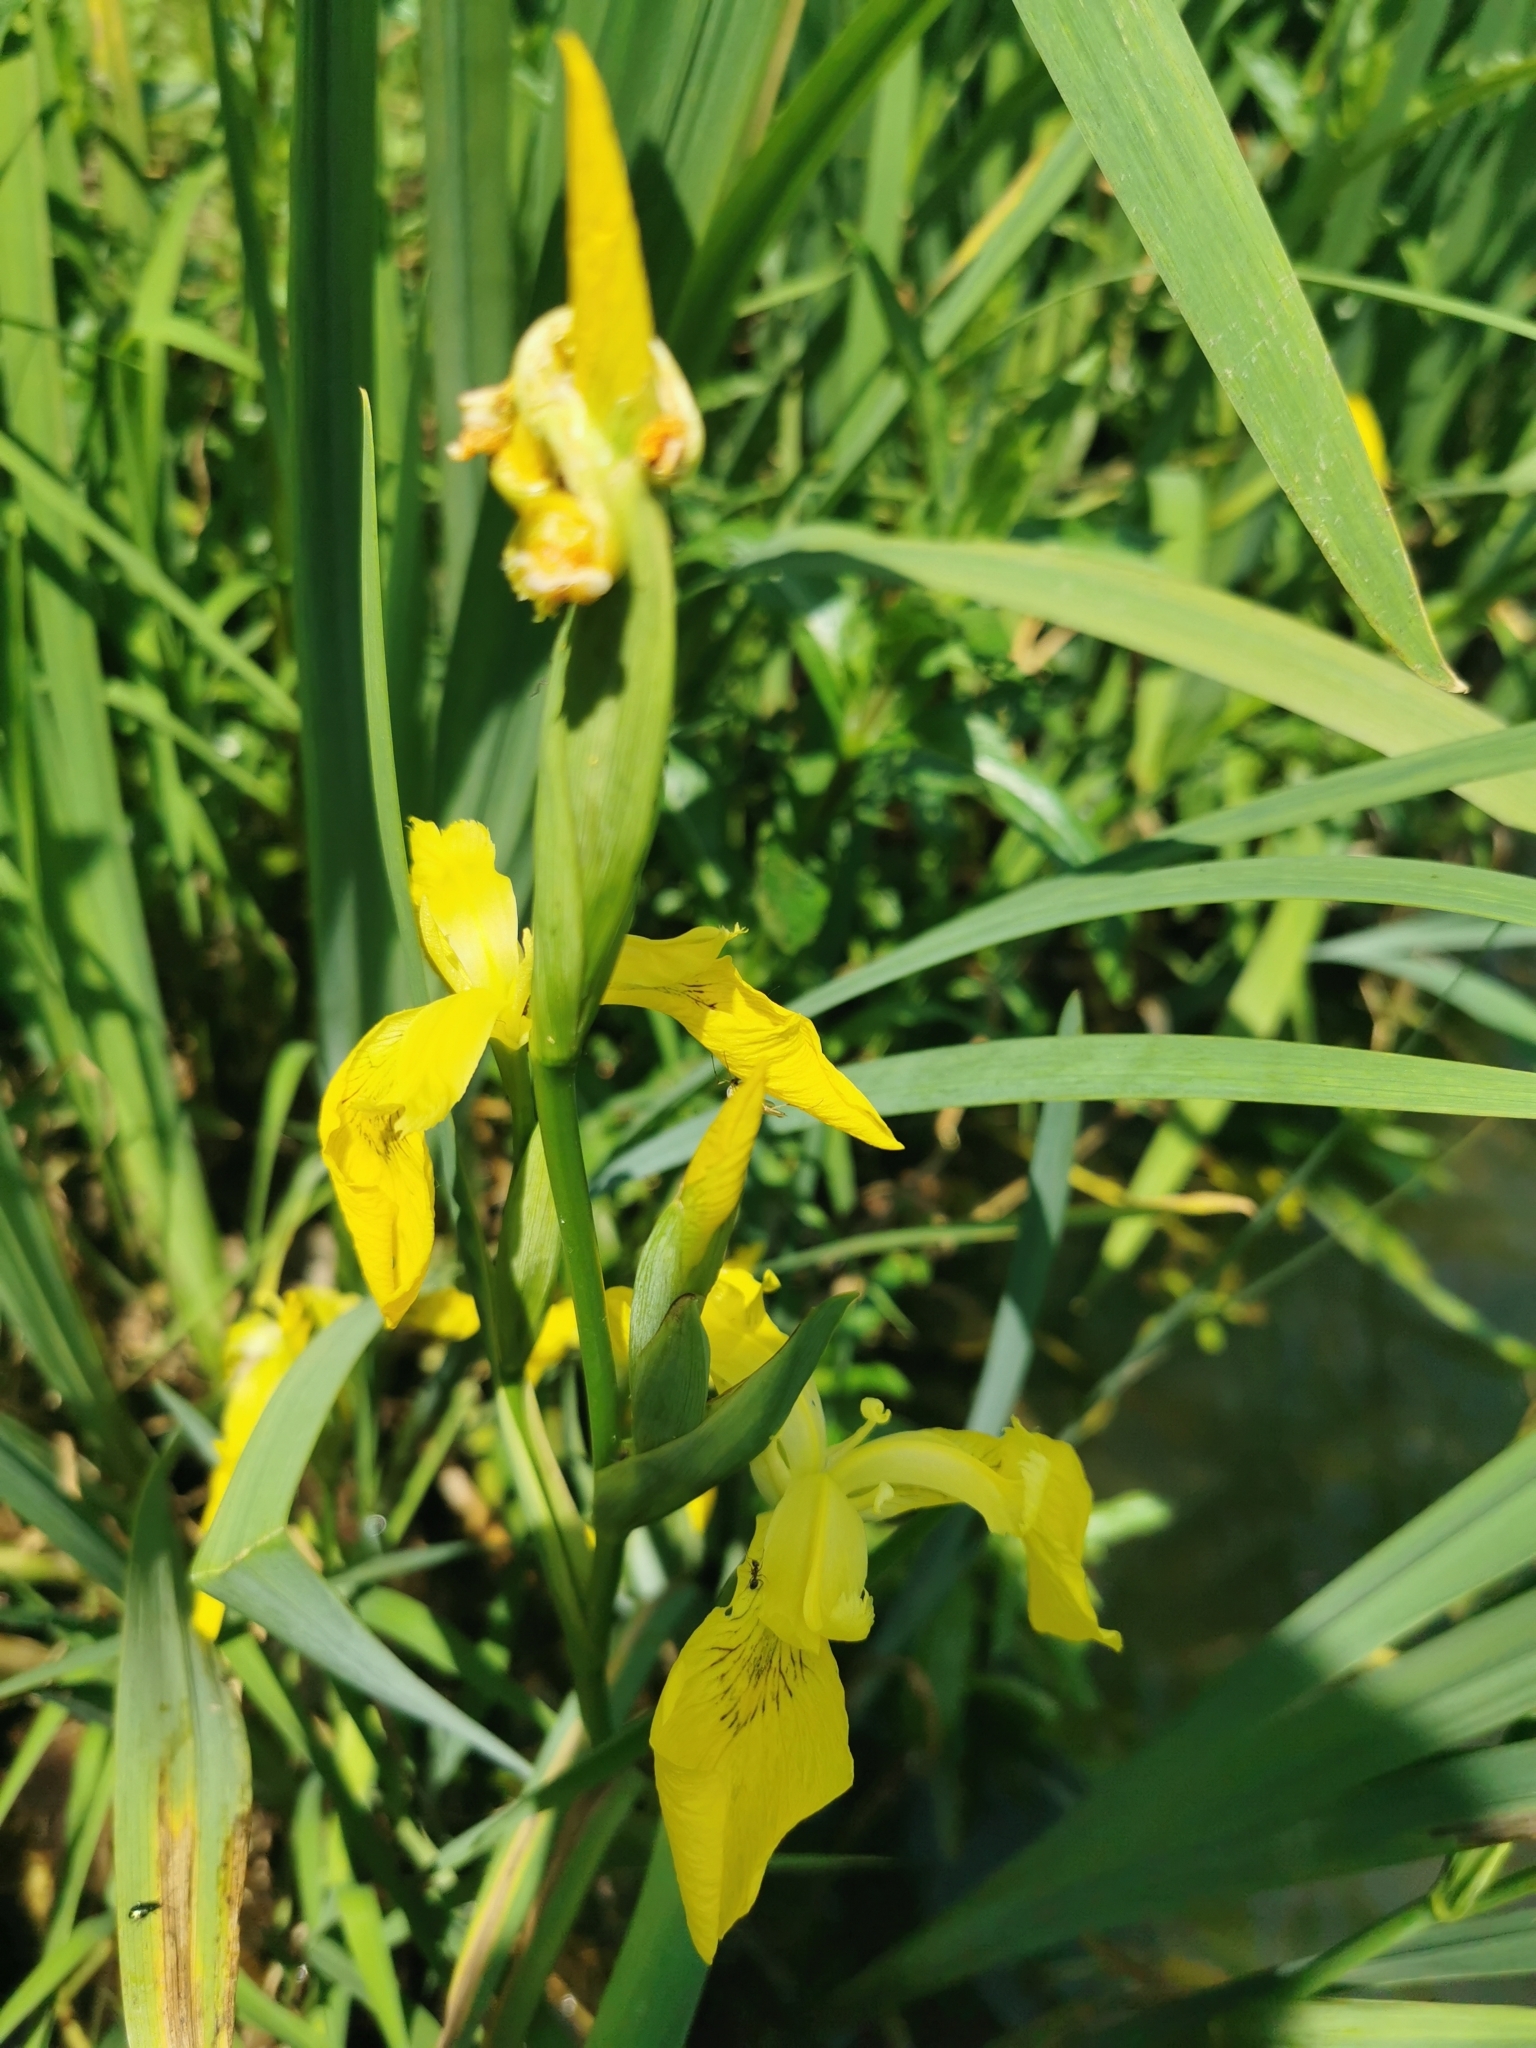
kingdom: Plantae
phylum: Tracheophyta
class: Liliopsida
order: Asparagales
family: Iridaceae
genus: Iris
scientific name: Iris pseudacorus
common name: Yellow flag
